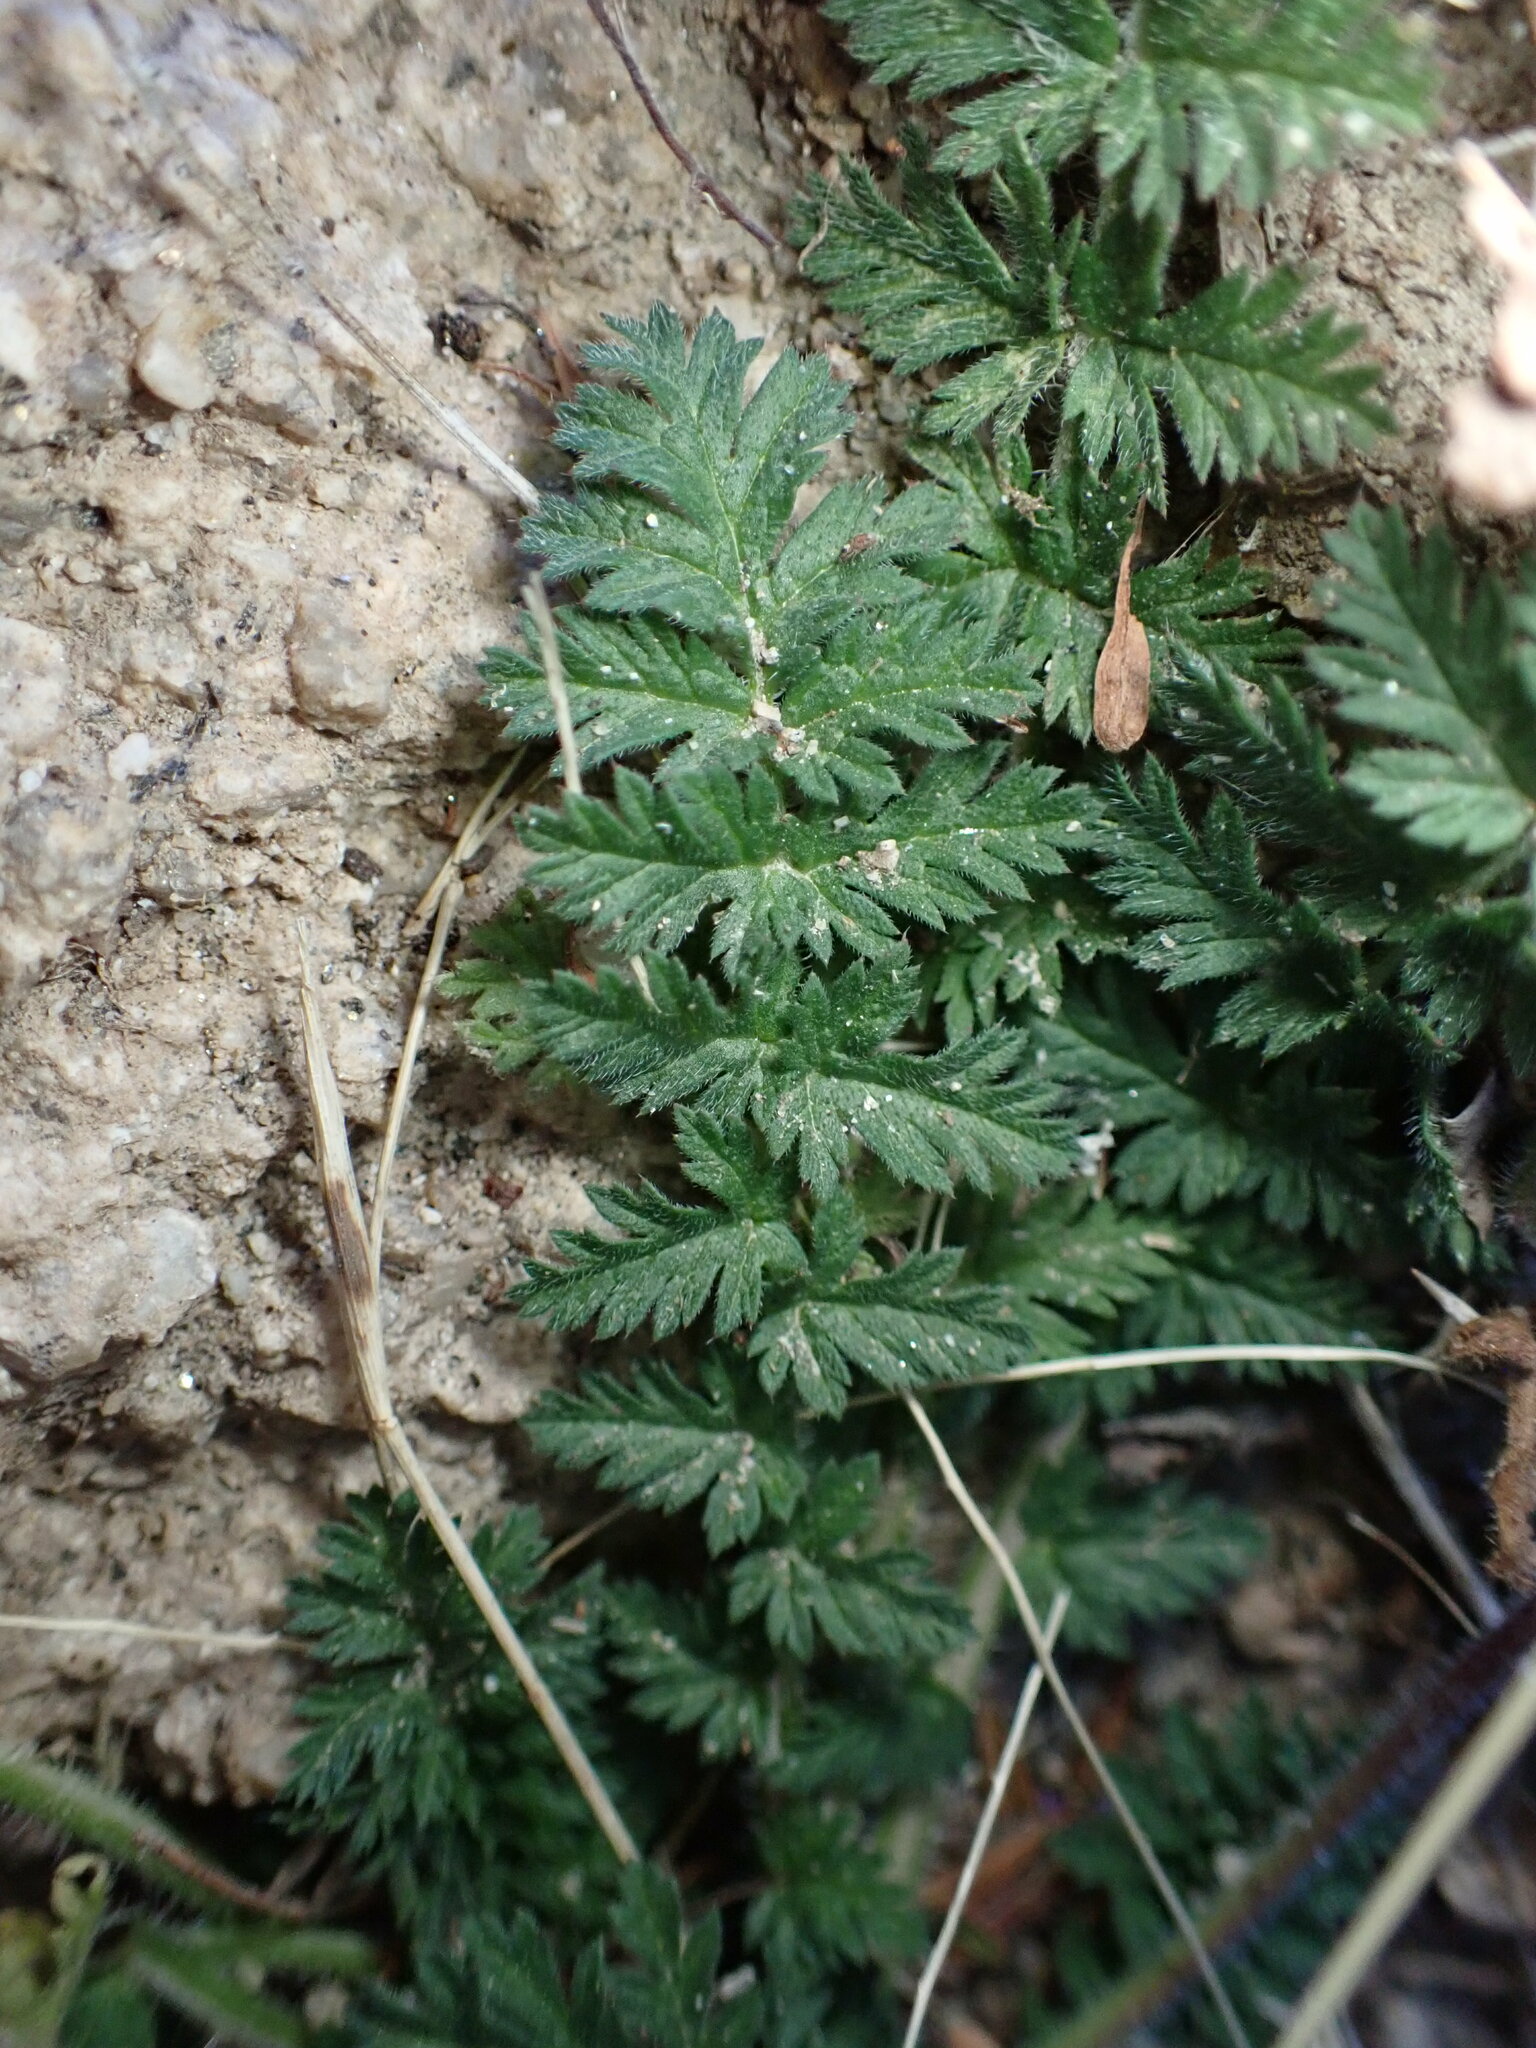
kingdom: Plantae
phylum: Tracheophyta
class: Magnoliopsida
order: Geraniales
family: Geraniaceae
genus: Erodium
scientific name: Erodium cicutarium
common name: Common stork's-bill
